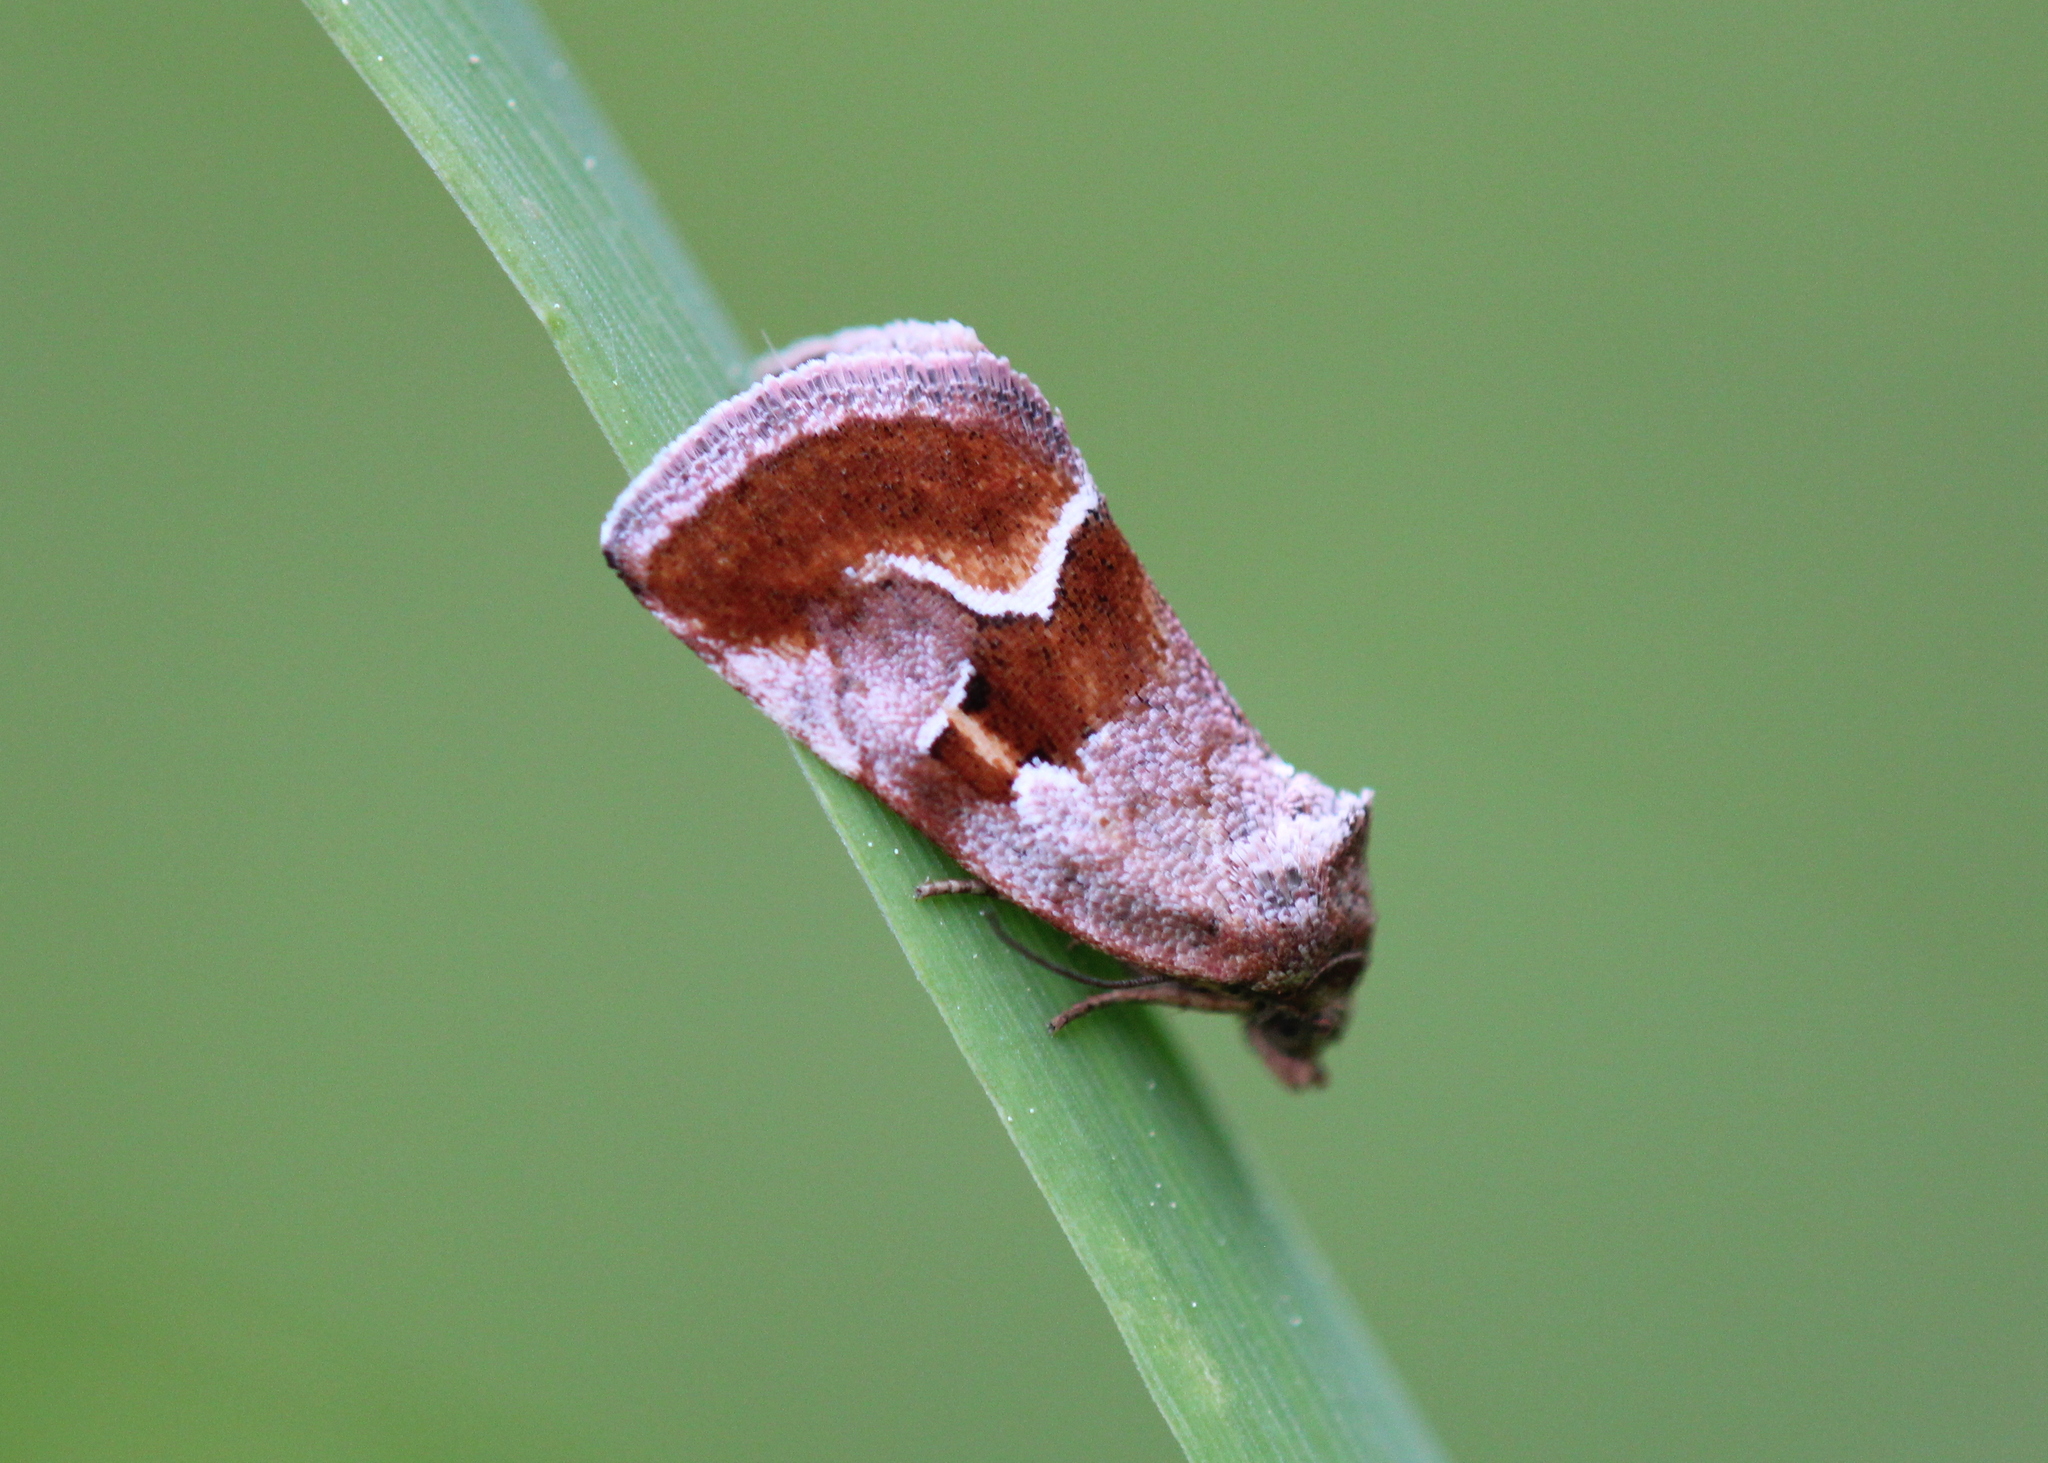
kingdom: Animalia
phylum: Arthropoda
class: Insecta
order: Lepidoptera
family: Noctuidae
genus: Deltote
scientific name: Deltote bellicula
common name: Bog glyph
